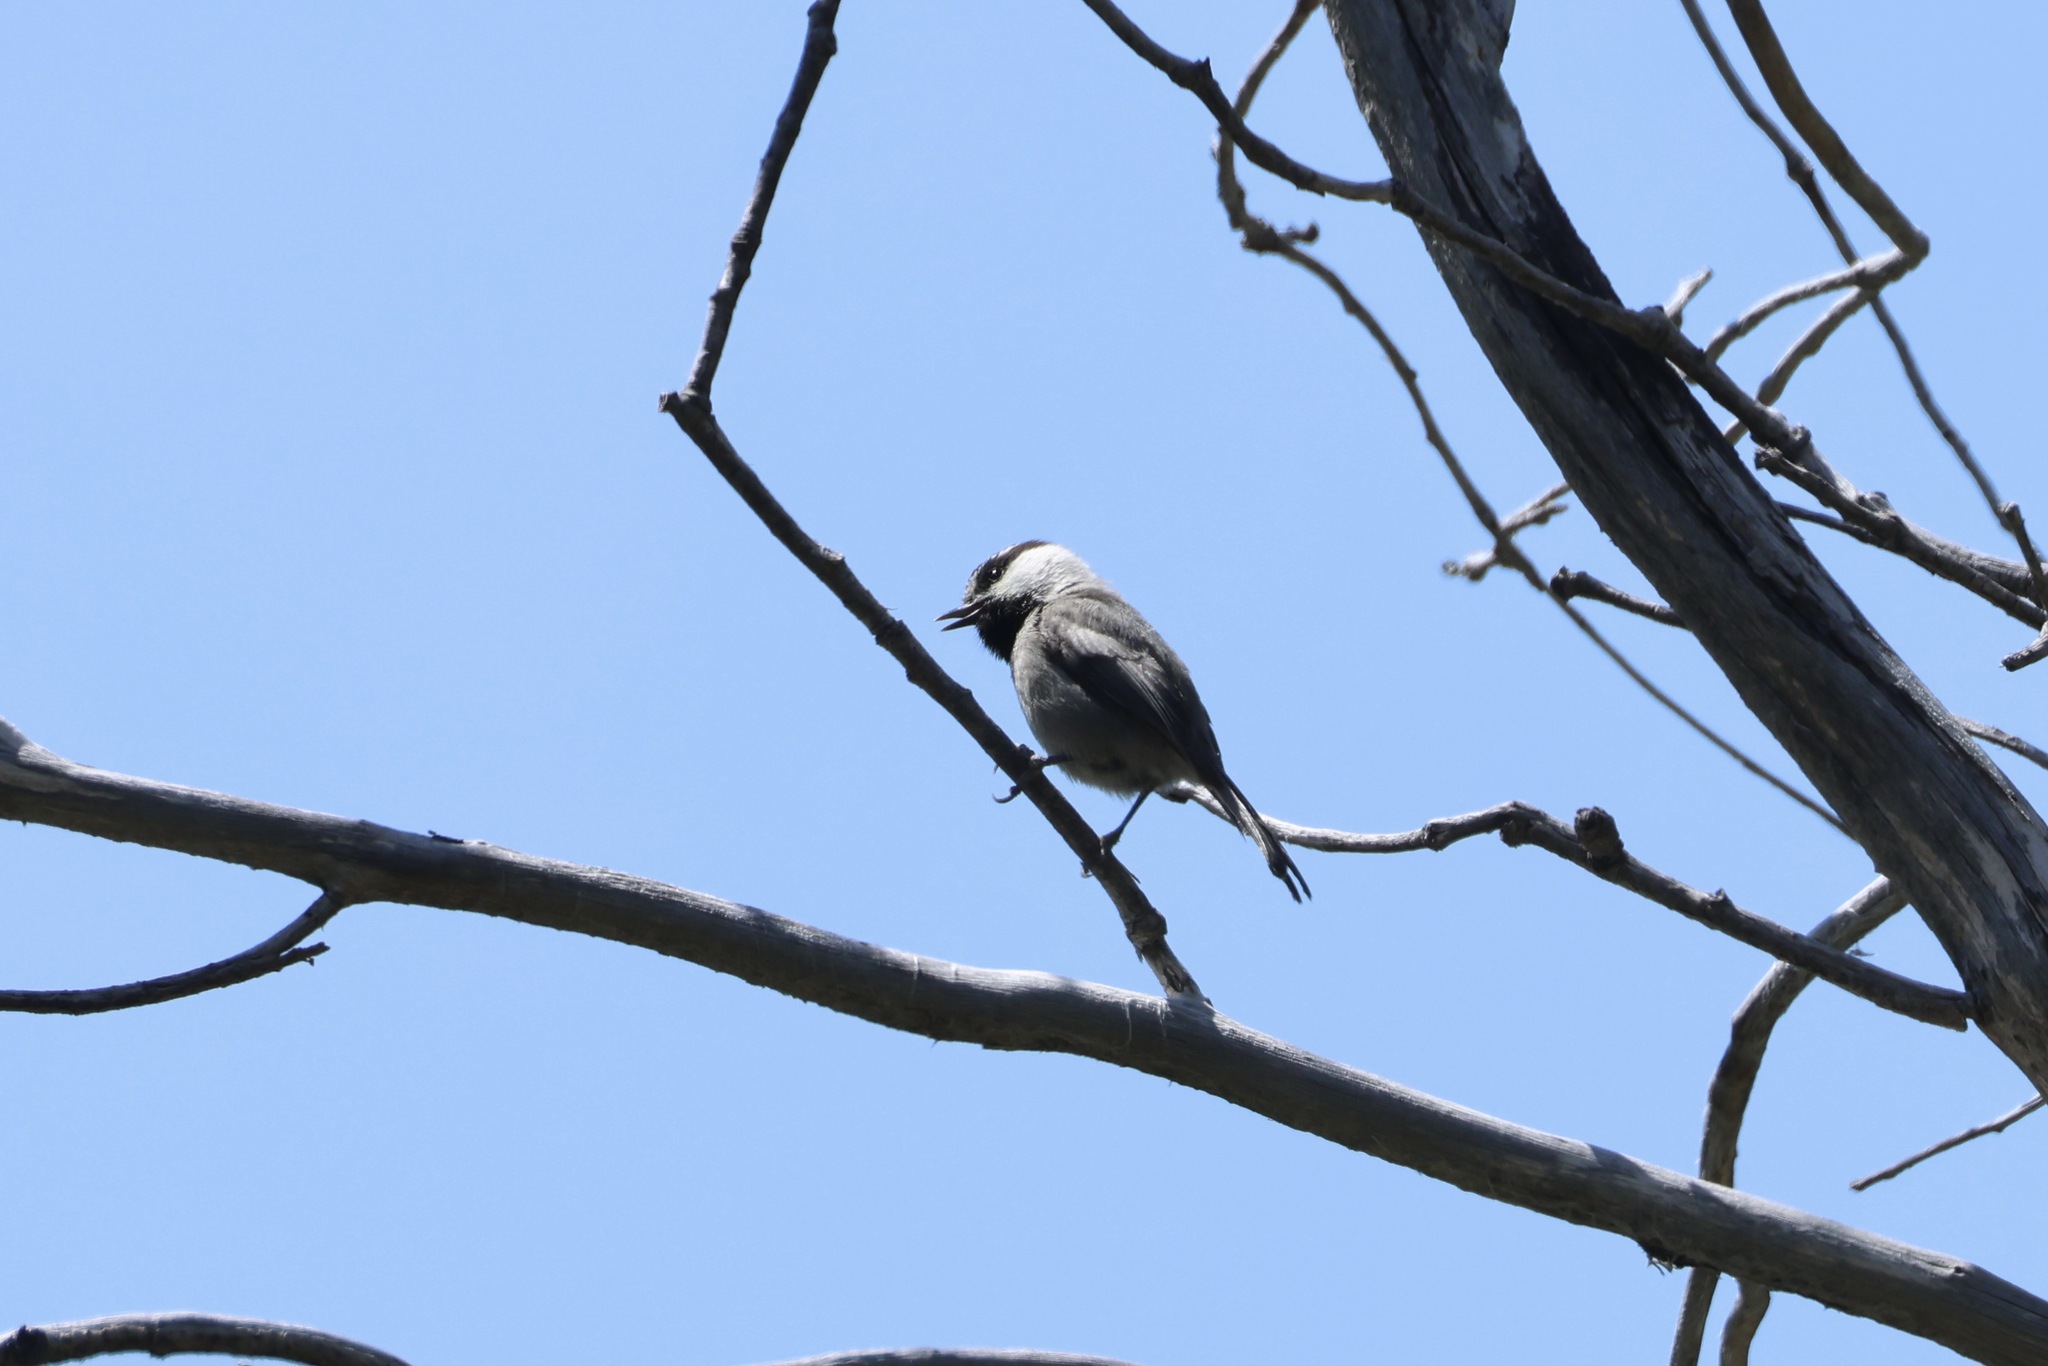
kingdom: Animalia
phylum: Chordata
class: Aves
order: Passeriformes
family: Paridae
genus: Poecile
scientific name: Poecile gambeli
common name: Mountain chickadee
